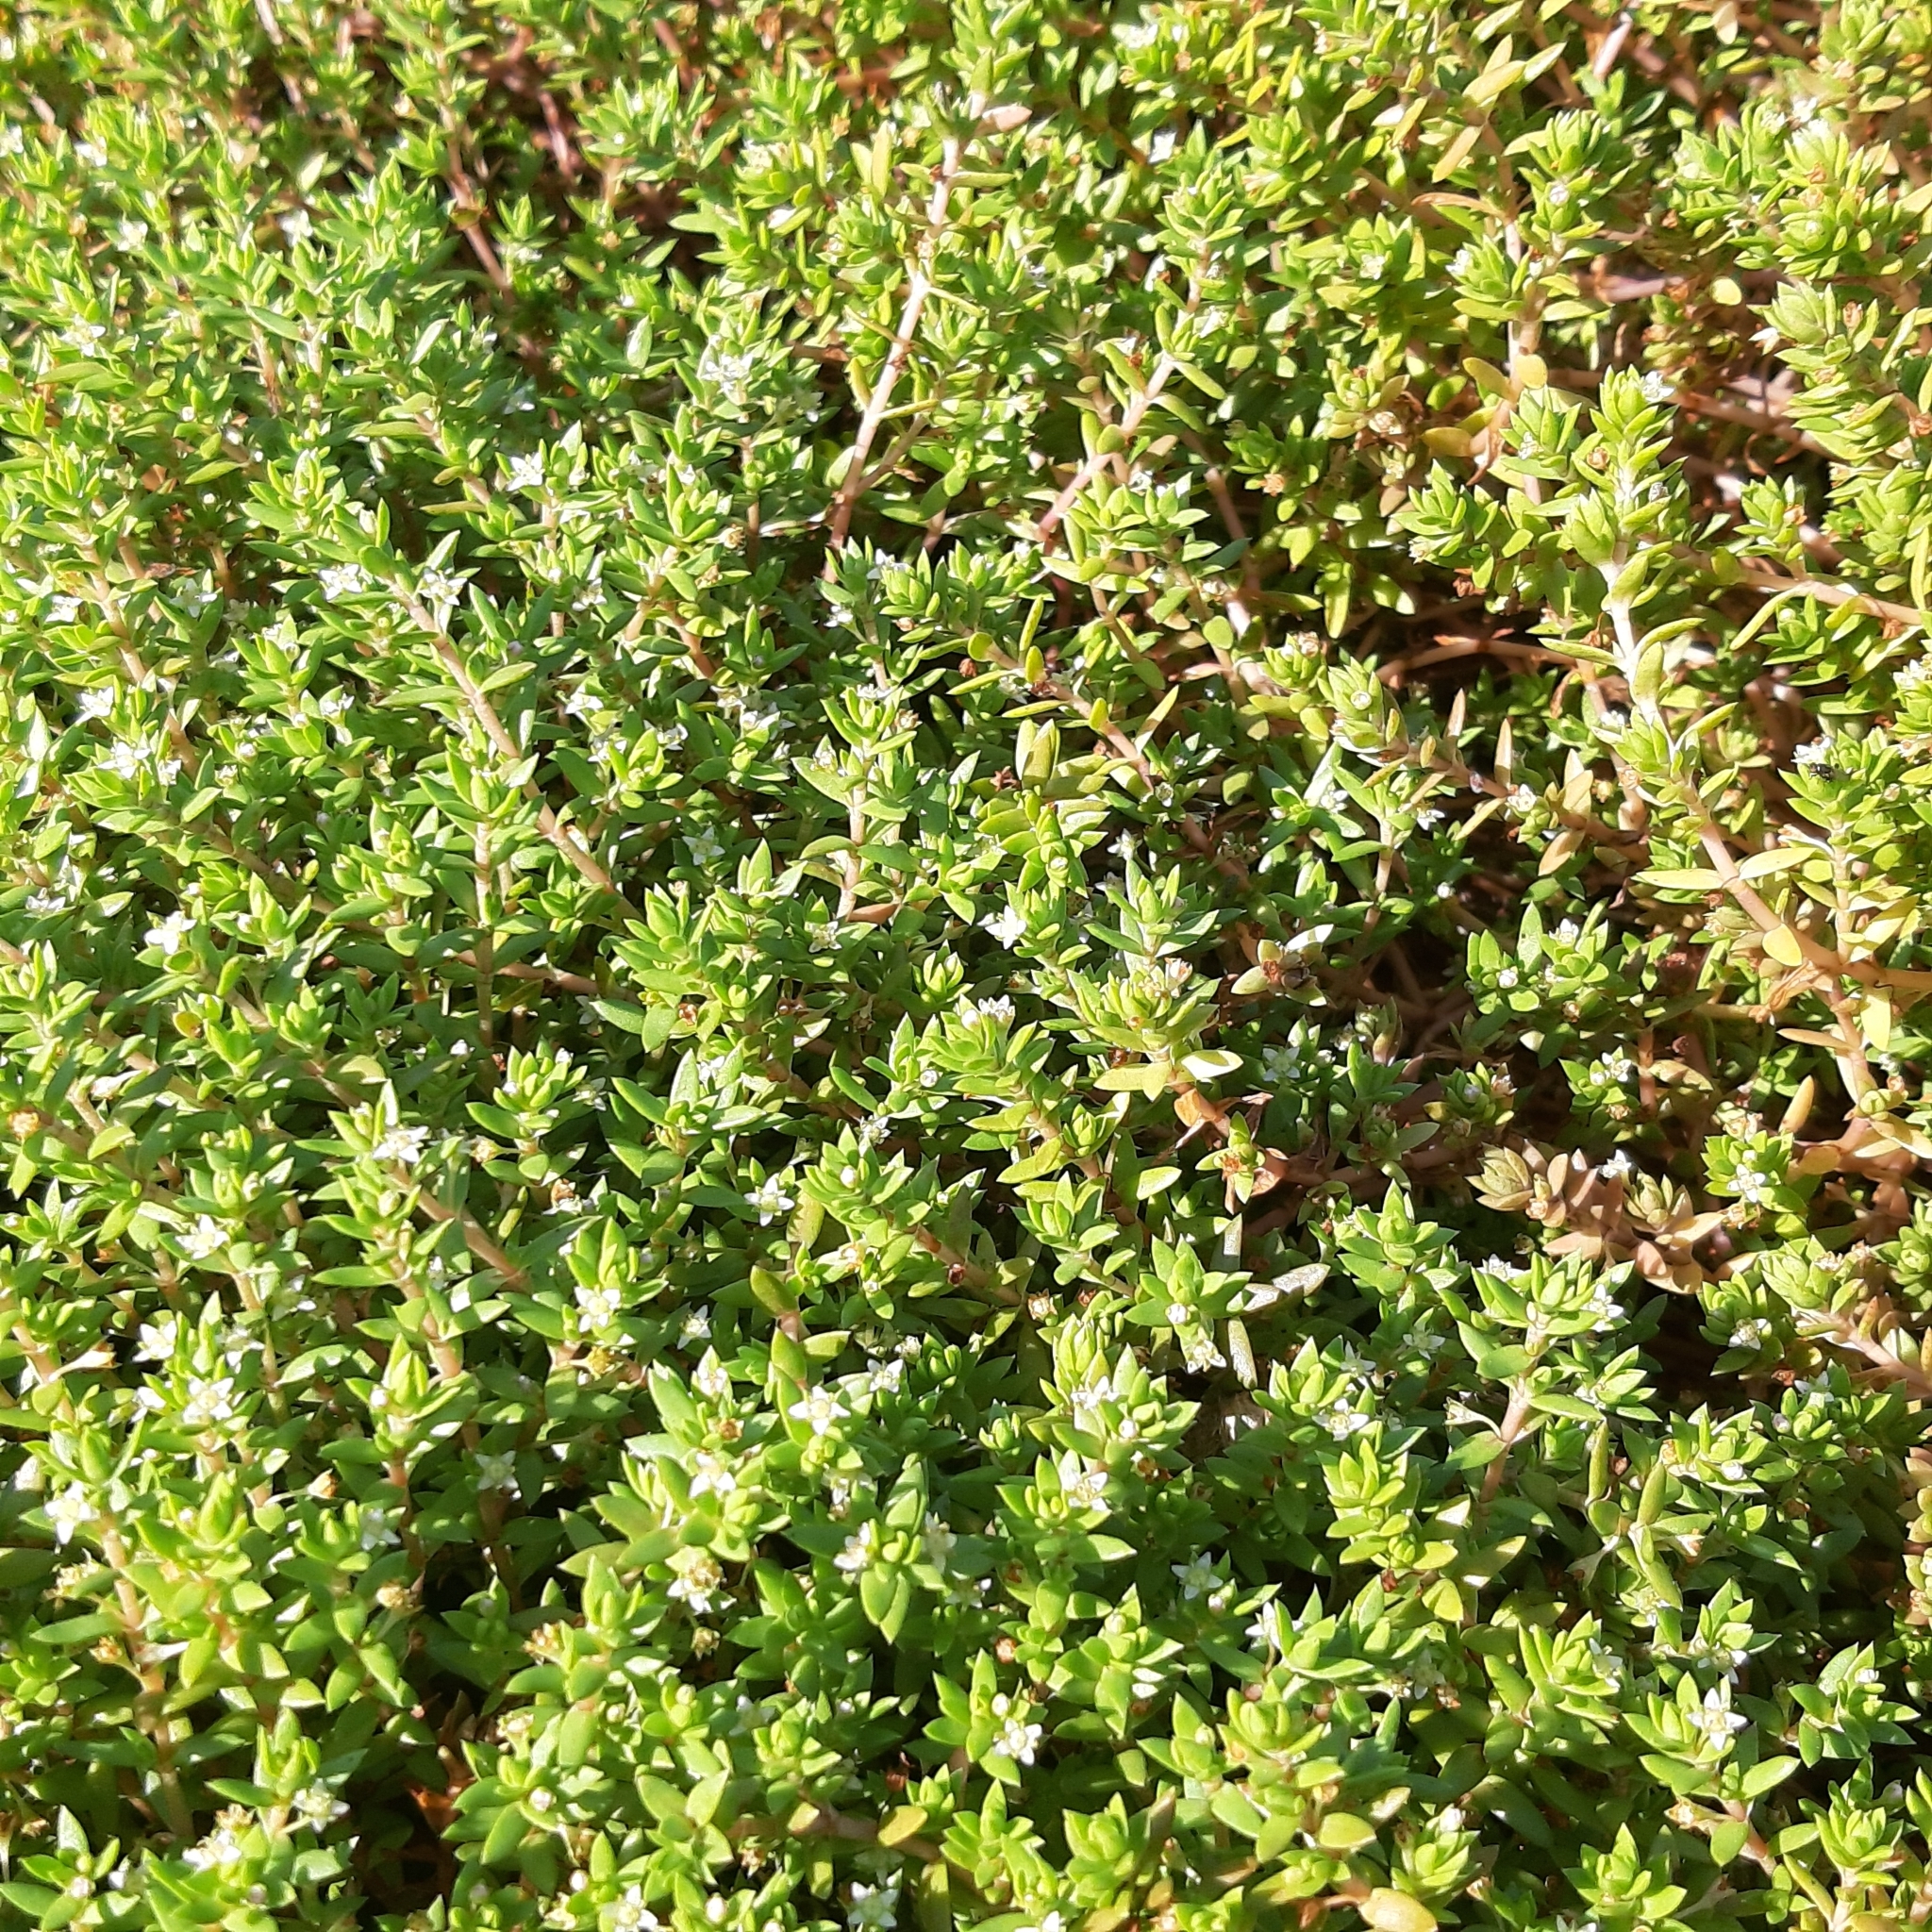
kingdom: Plantae
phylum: Tracheophyta
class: Magnoliopsida
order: Saxifragales
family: Crassulaceae
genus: Crassula
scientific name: Crassula helmsii
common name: New zealand pigmyweed
